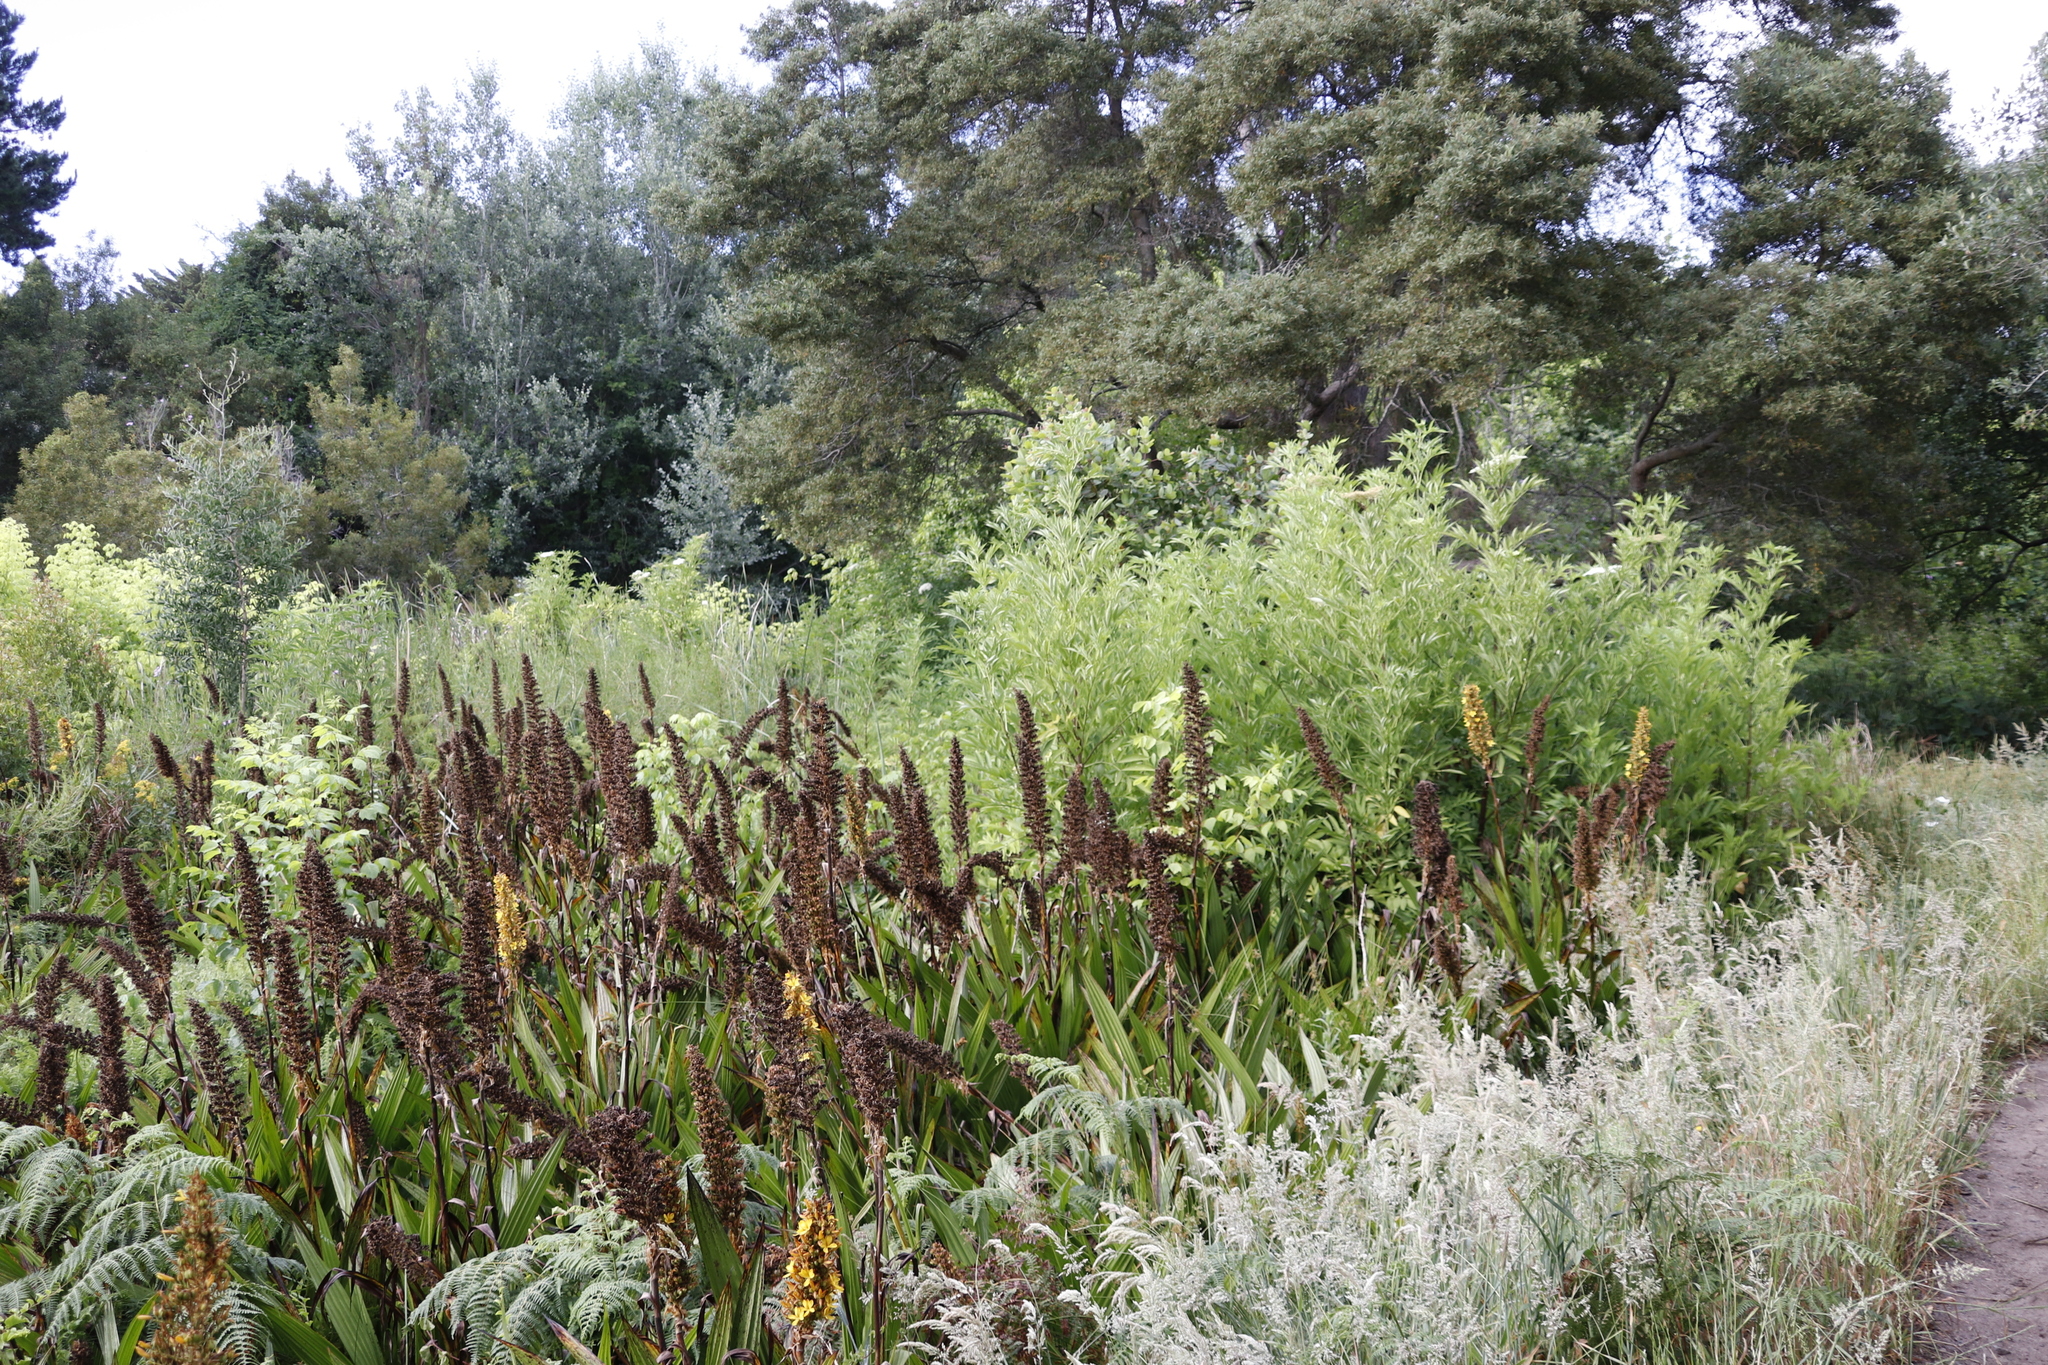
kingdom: Plantae
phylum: Tracheophyta
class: Liliopsida
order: Commelinales
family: Haemodoraceae
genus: Wachendorfia
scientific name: Wachendorfia thyrsiflora
